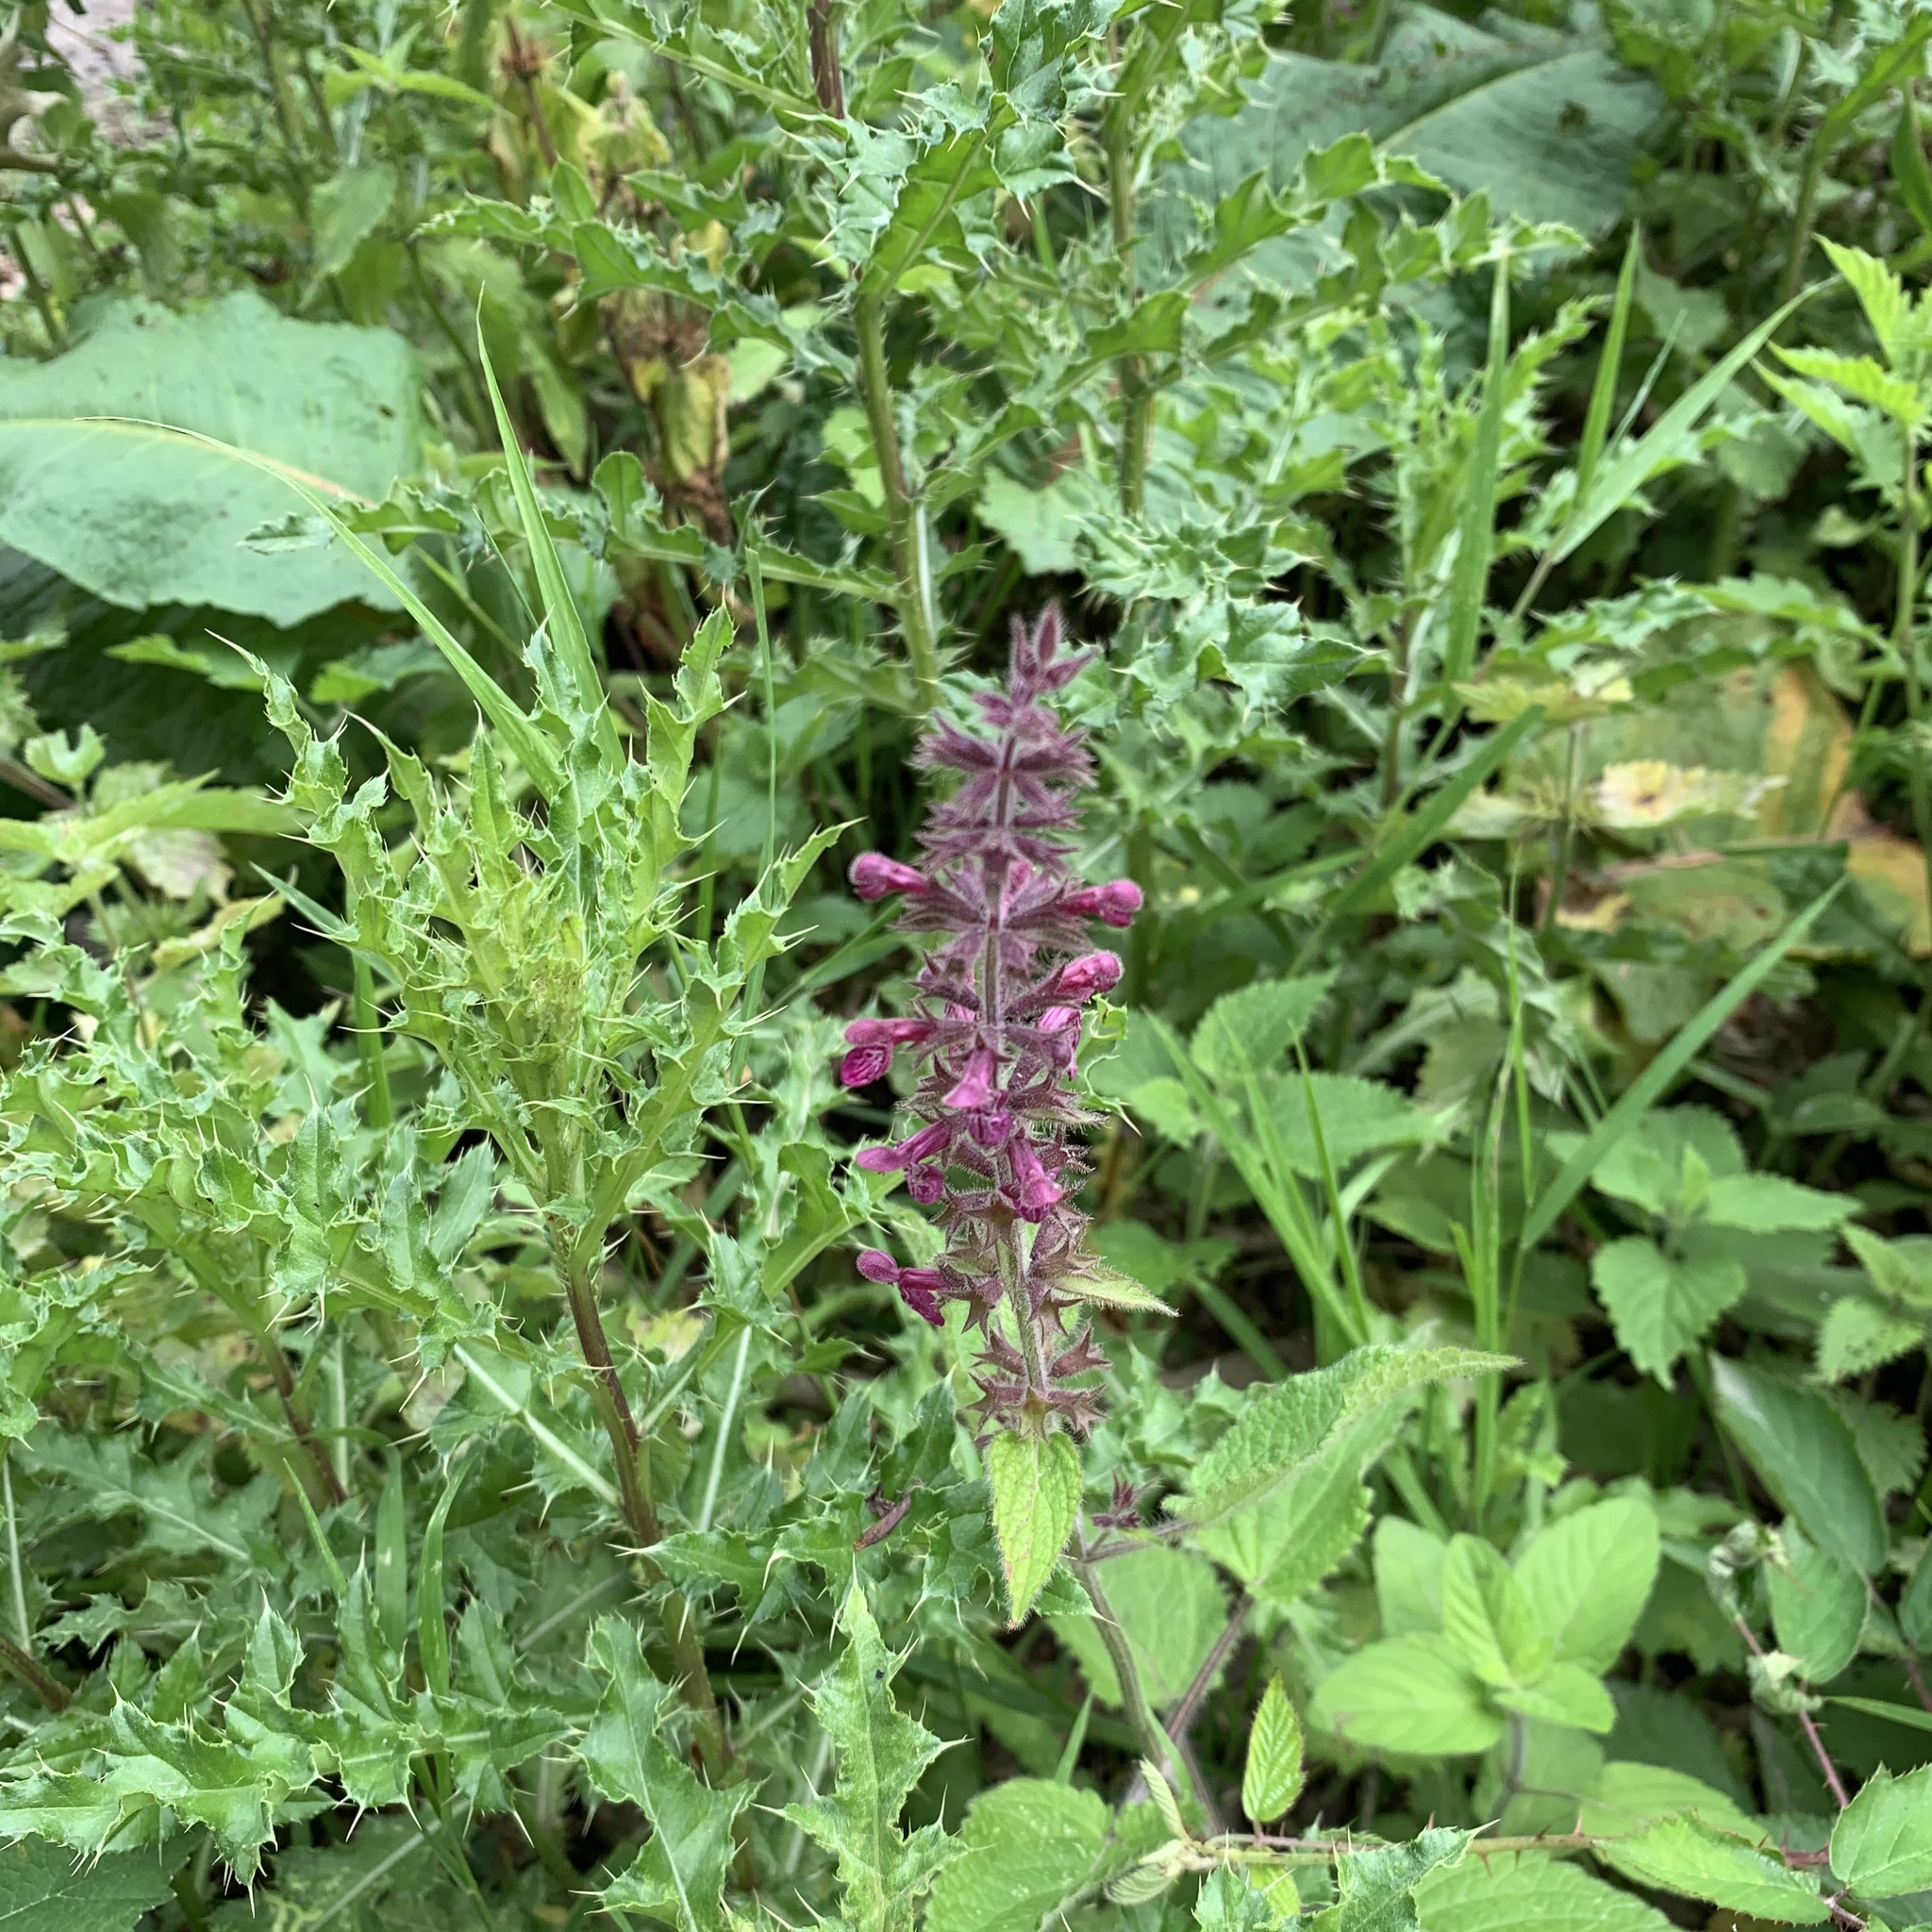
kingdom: Plantae
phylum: Tracheophyta
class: Magnoliopsida
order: Lamiales
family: Lamiaceae
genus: Stachys
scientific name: Stachys sylvatica
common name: Hedge woundwort
